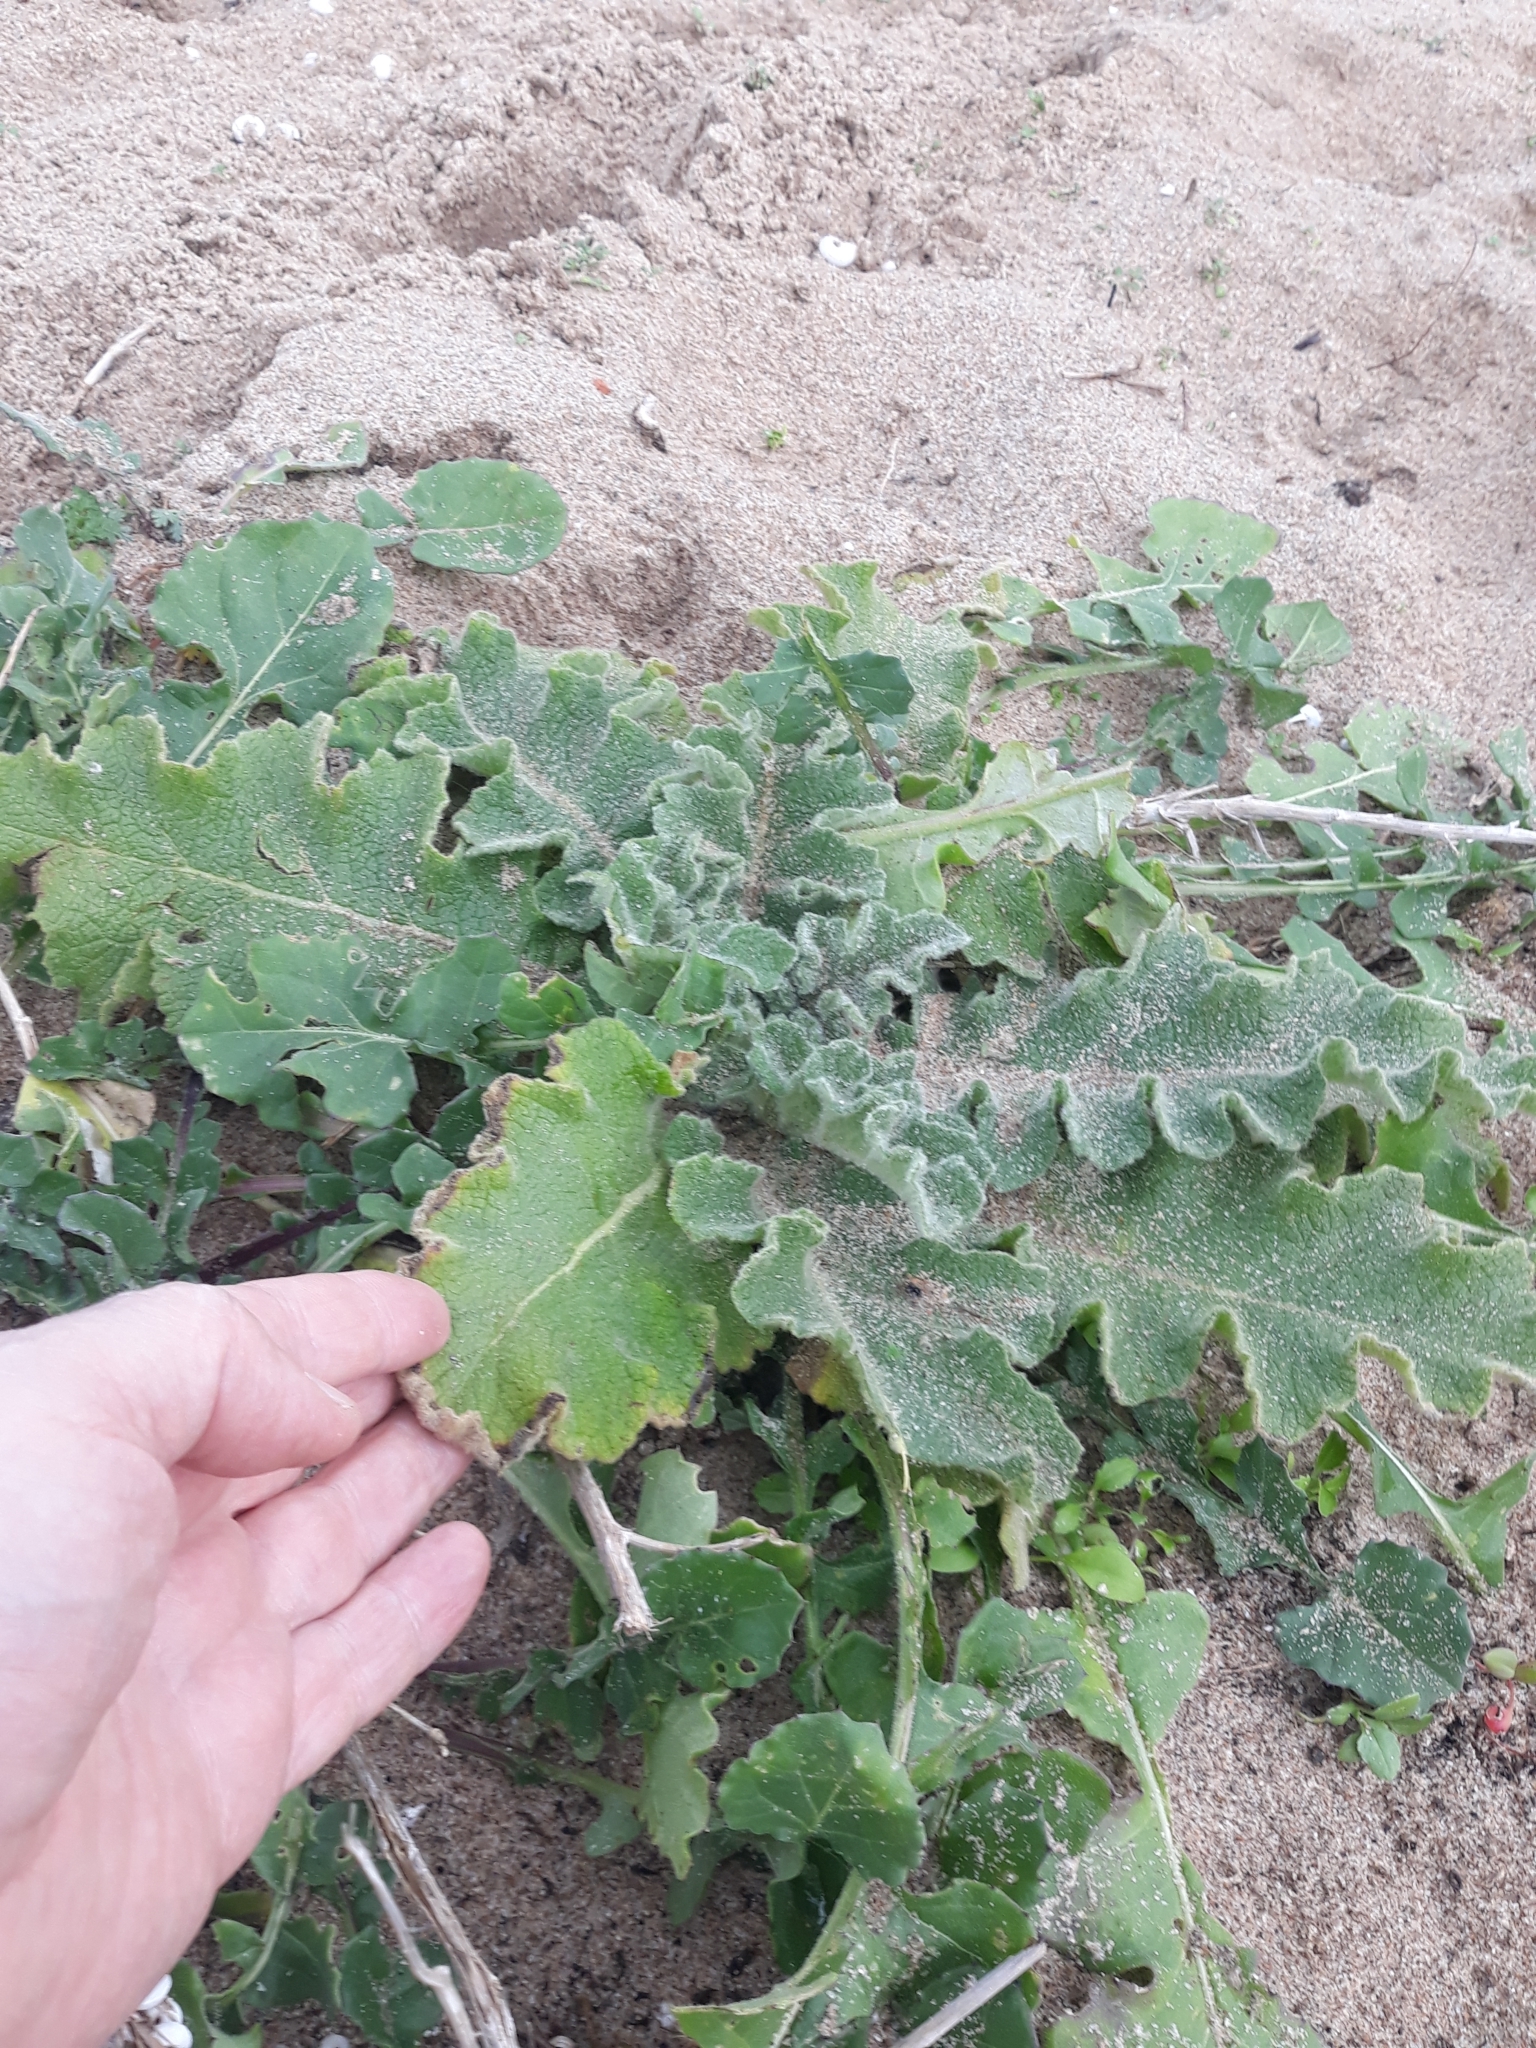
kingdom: Plantae
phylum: Tracheophyta
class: Magnoliopsida
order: Lamiales
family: Scrophulariaceae
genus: Verbascum
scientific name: Verbascum sinuatum
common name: Wavyleaf mullein
